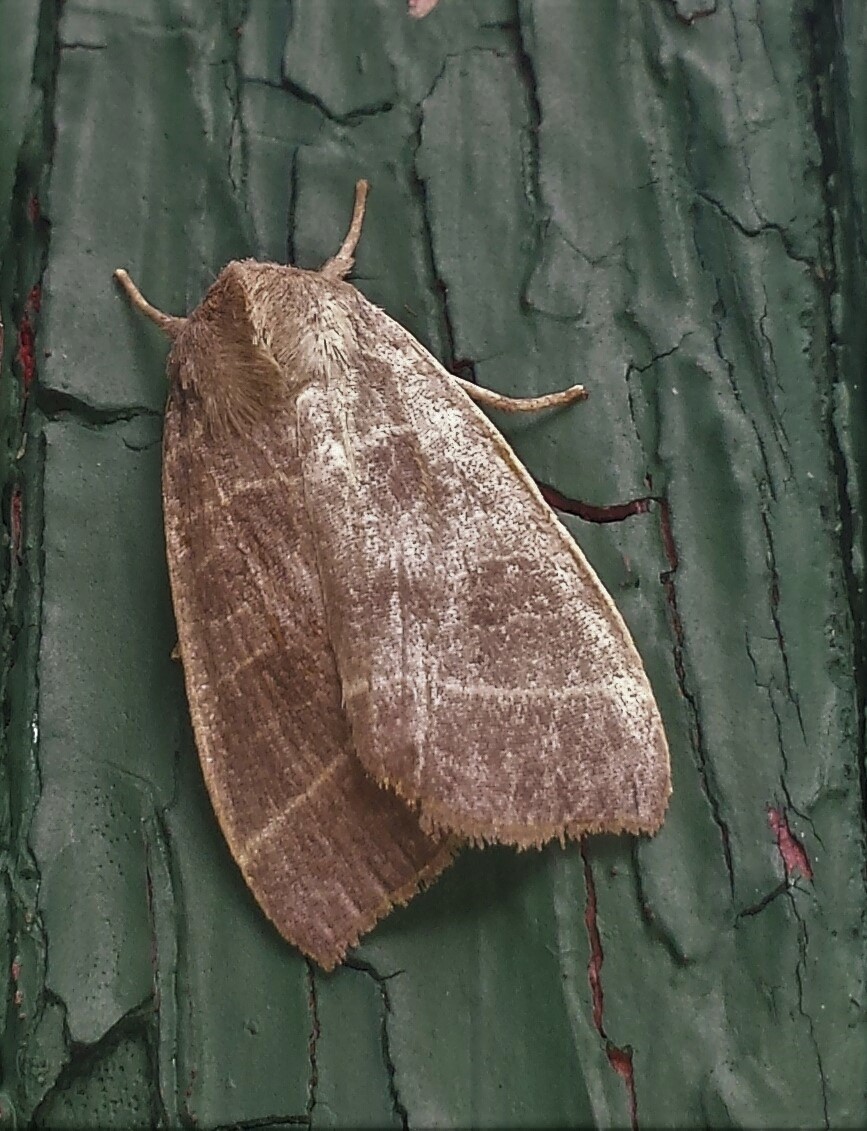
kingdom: Animalia
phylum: Arthropoda
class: Insecta
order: Lepidoptera
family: Noctuidae
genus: Ipimorpha
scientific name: Ipimorpha pleonectusa
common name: Even-lined sallow
